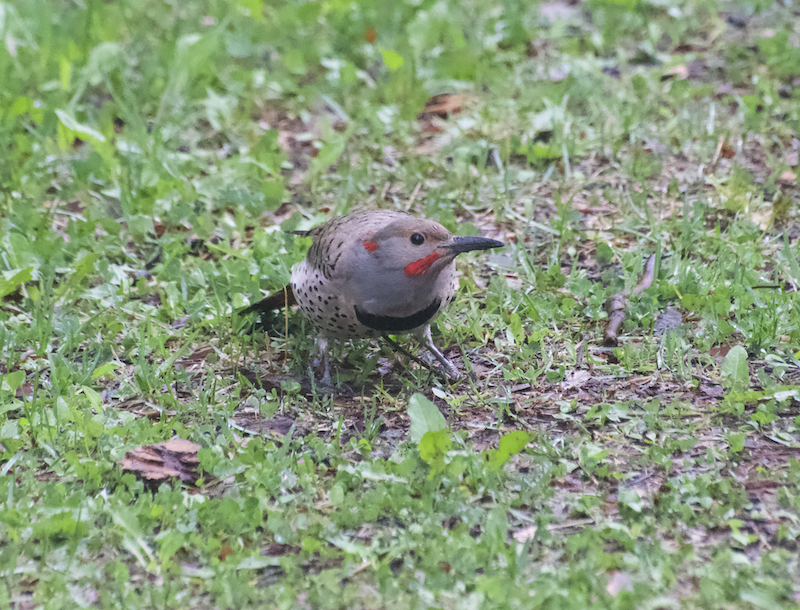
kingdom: Animalia
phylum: Chordata
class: Aves
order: Piciformes
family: Picidae
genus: Colaptes
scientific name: Colaptes auratus
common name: Northern flicker
